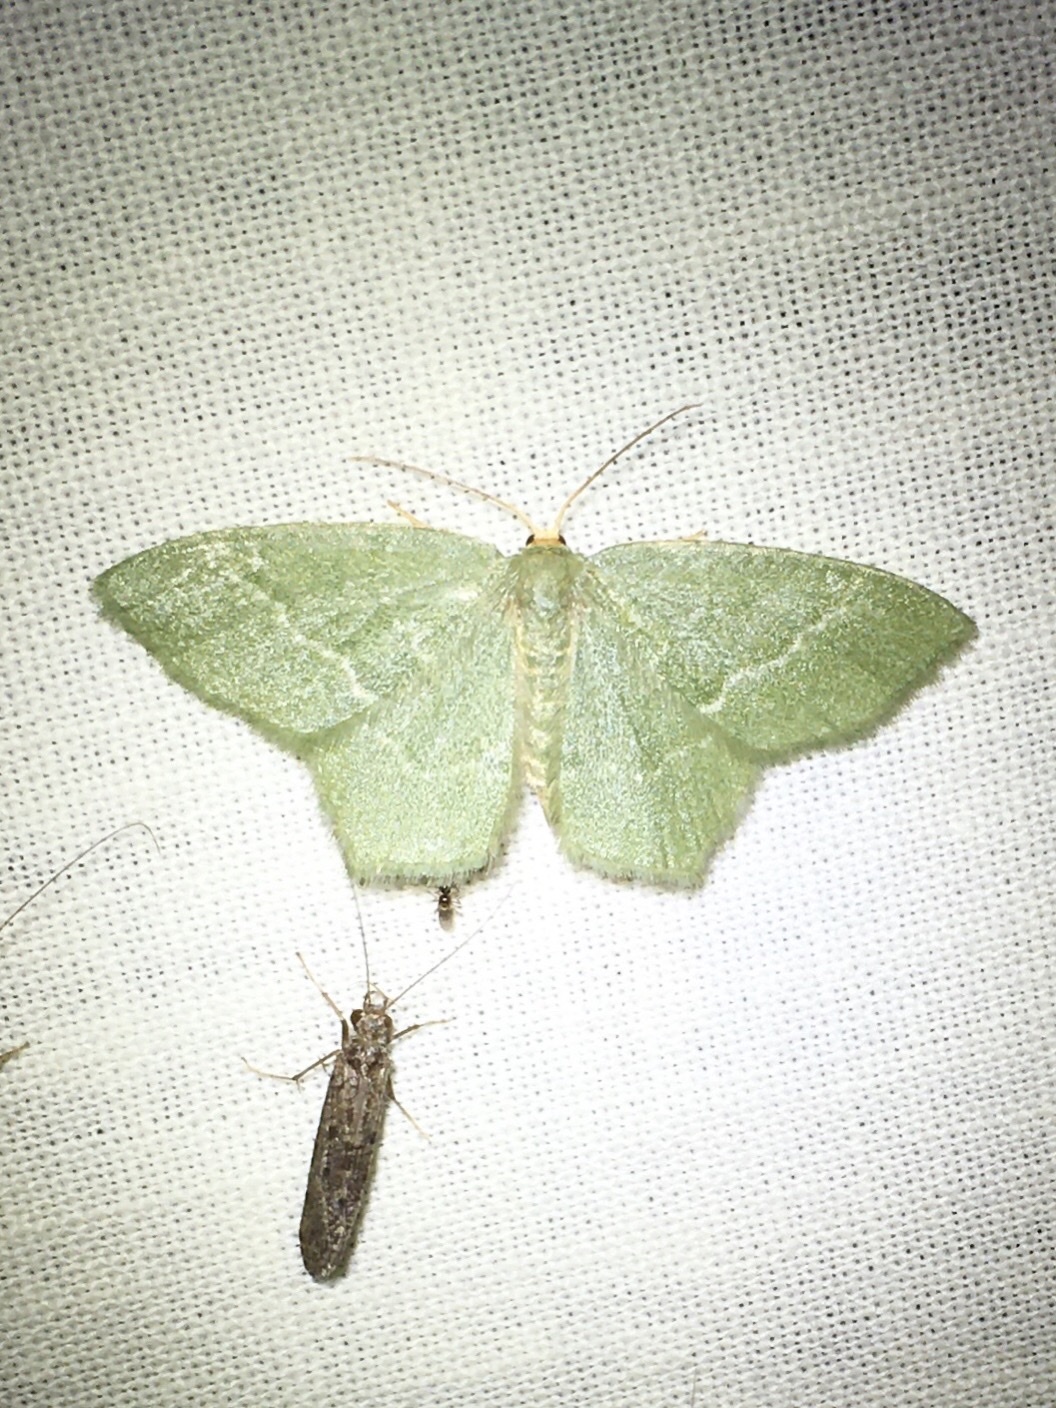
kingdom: Animalia
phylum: Arthropoda
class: Insecta
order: Lepidoptera
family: Geometridae
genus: Thalera
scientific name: Thalera pistasciaria
